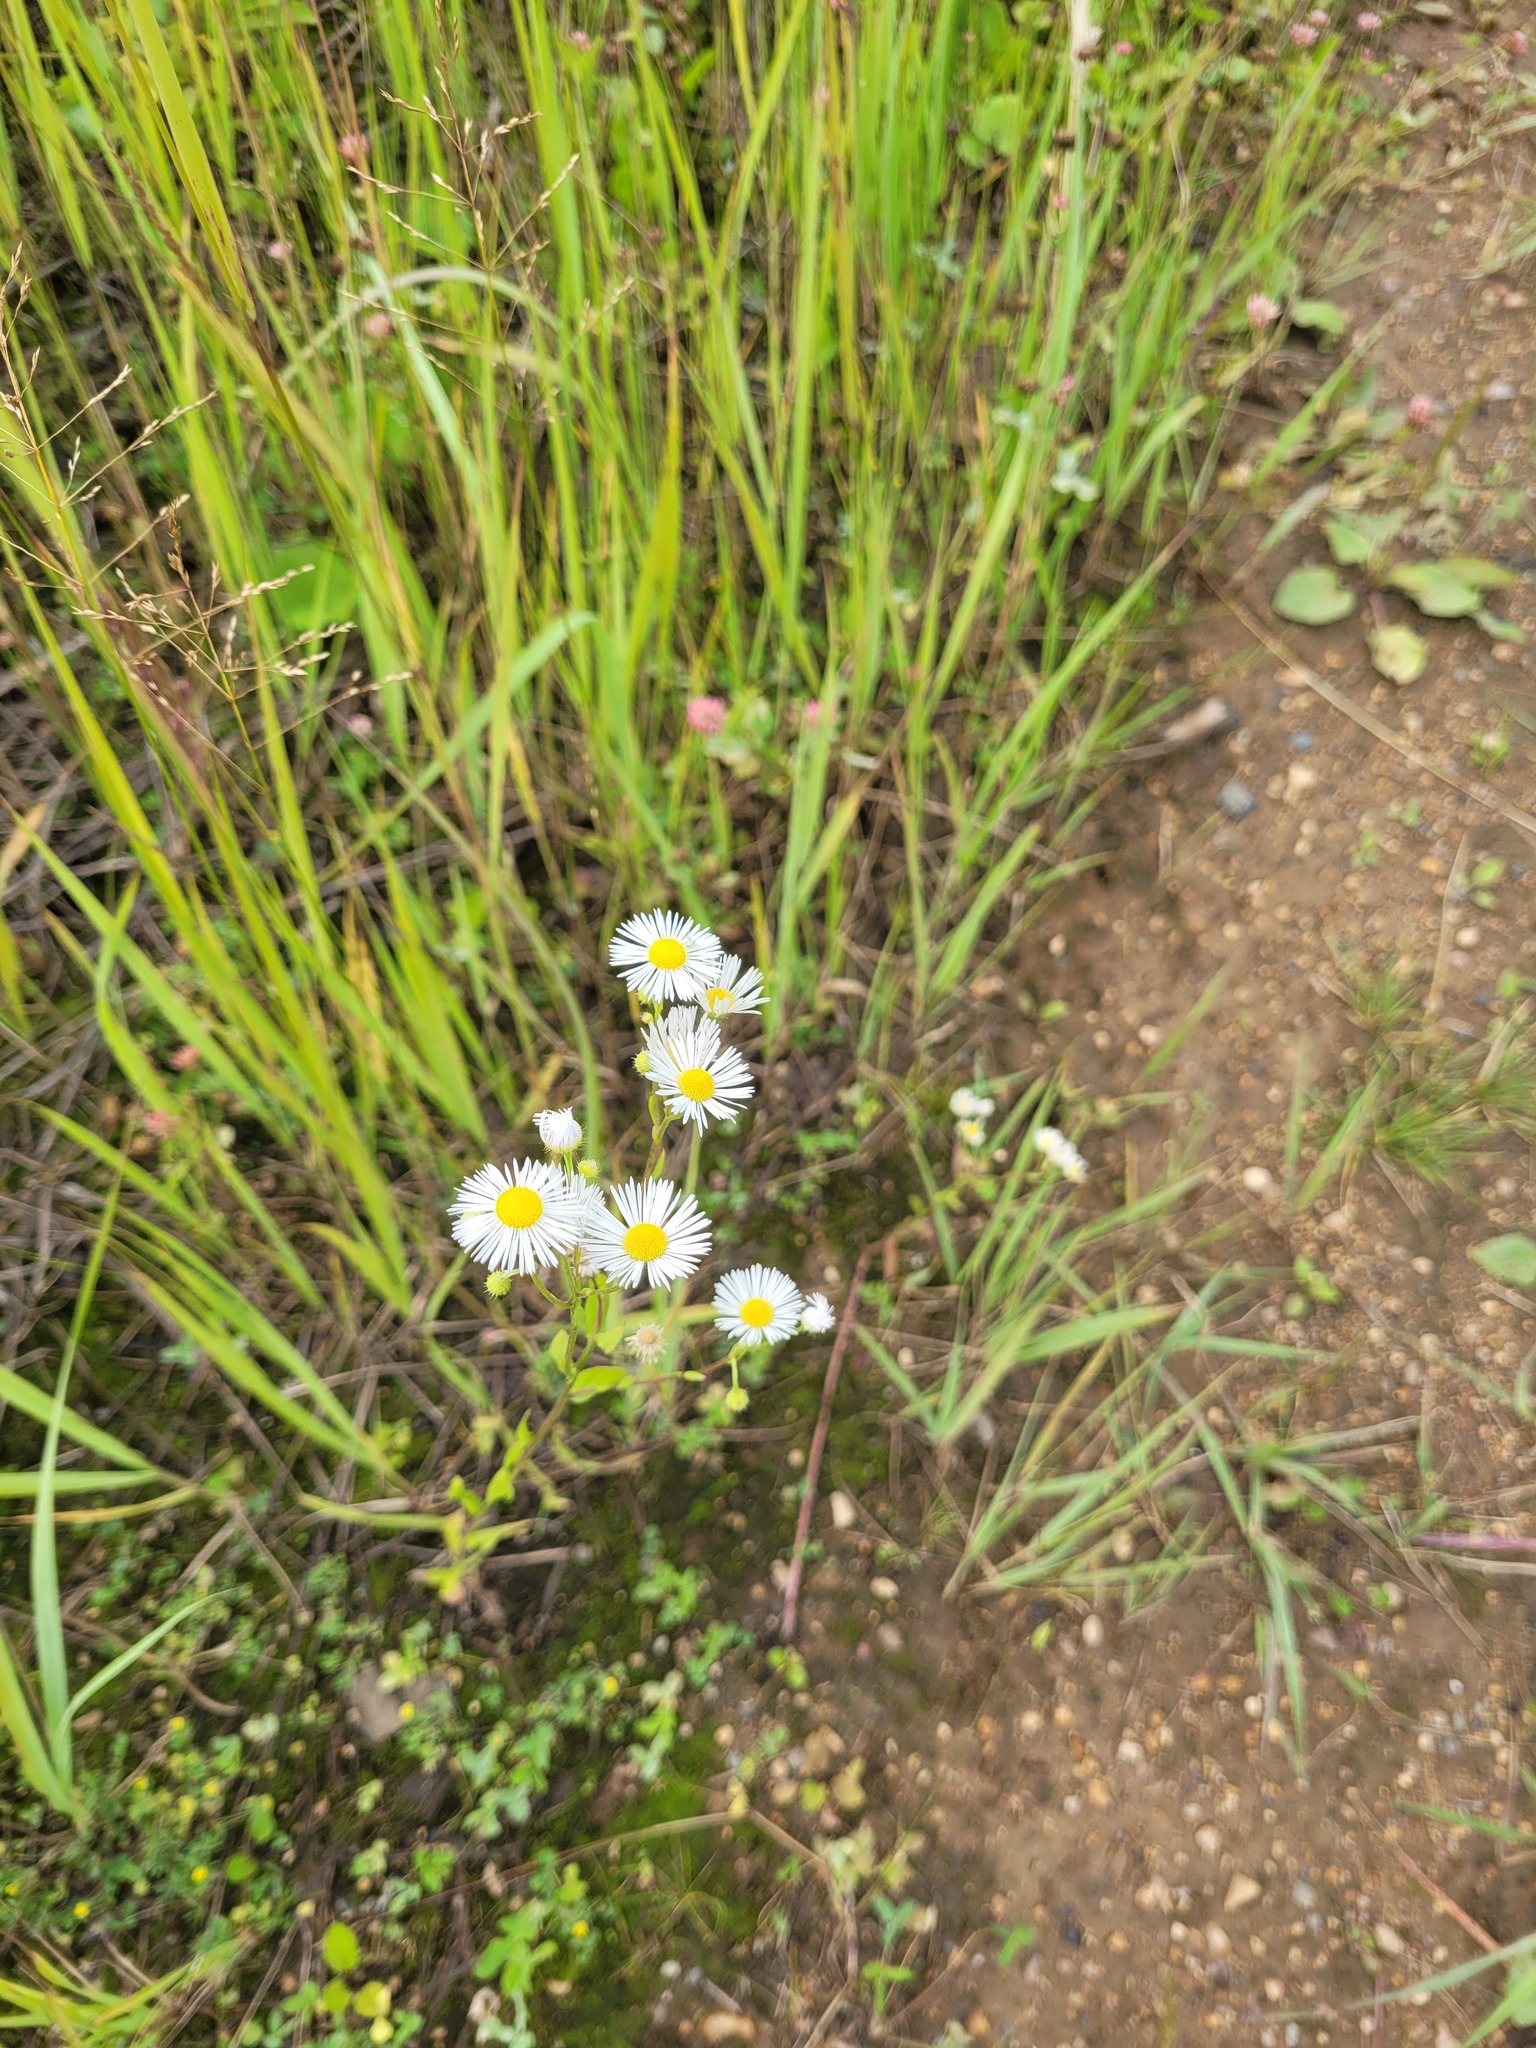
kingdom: Plantae
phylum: Tracheophyta
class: Magnoliopsida
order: Asterales
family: Asteraceae
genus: Erigeron
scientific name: Erigeron annuus
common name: Tall fleabane
